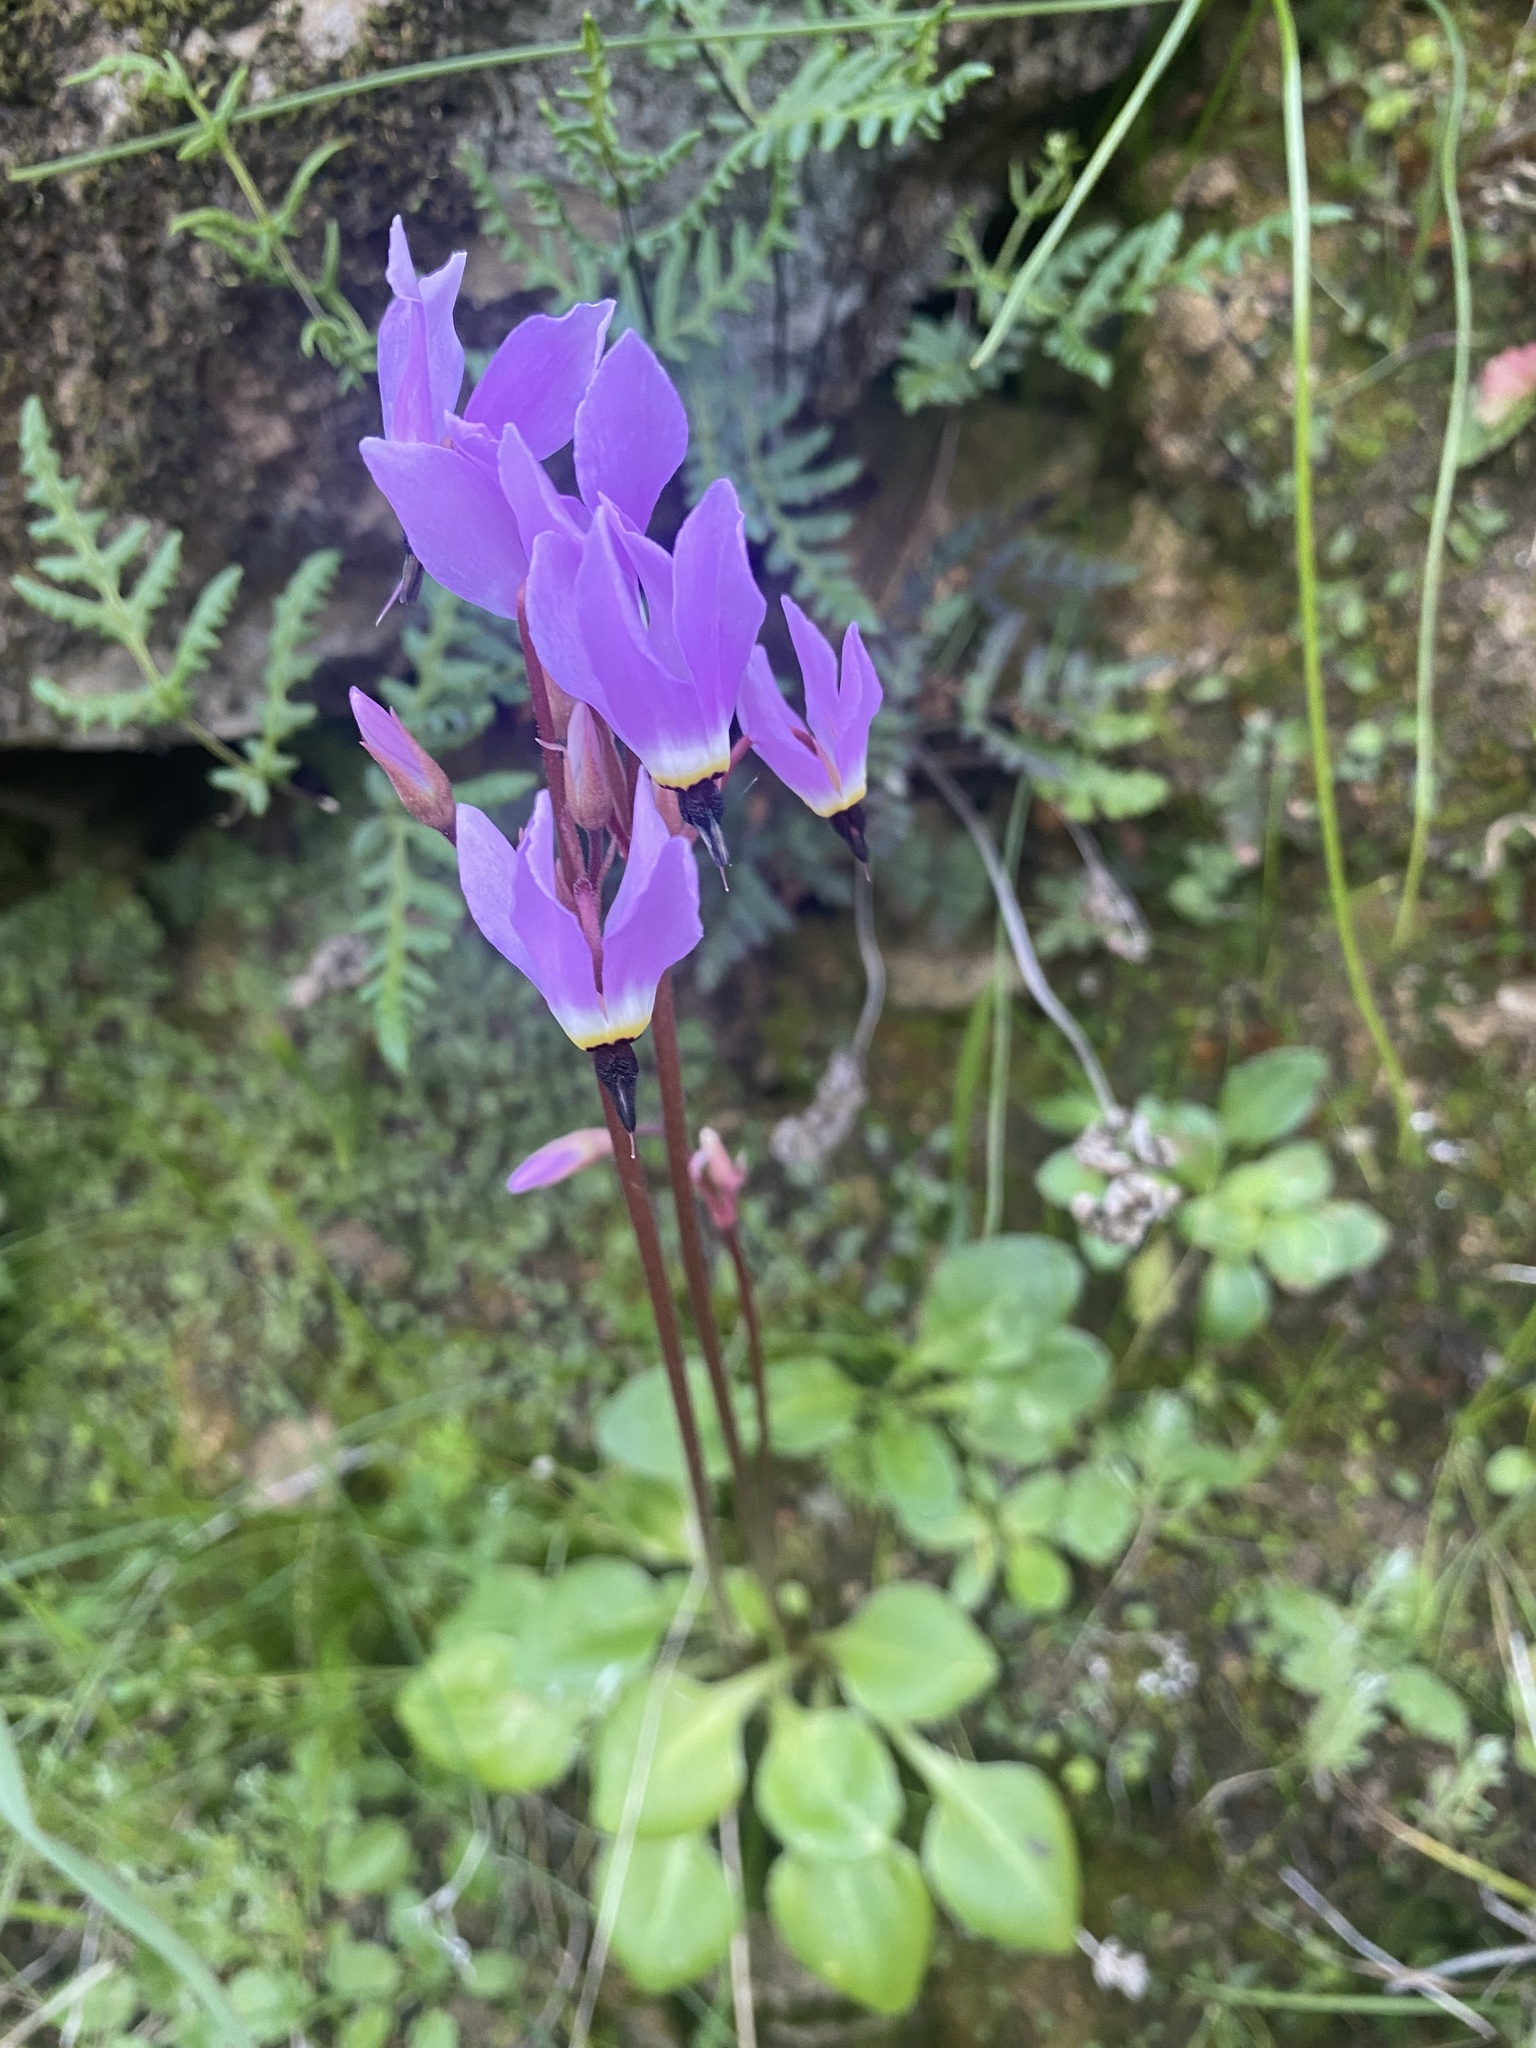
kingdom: Plantae
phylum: Tracheophyta
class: Magnoliopsida
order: Ericales
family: Primulaceae
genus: Dodecatheon
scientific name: Dodecatheon hendersonii
